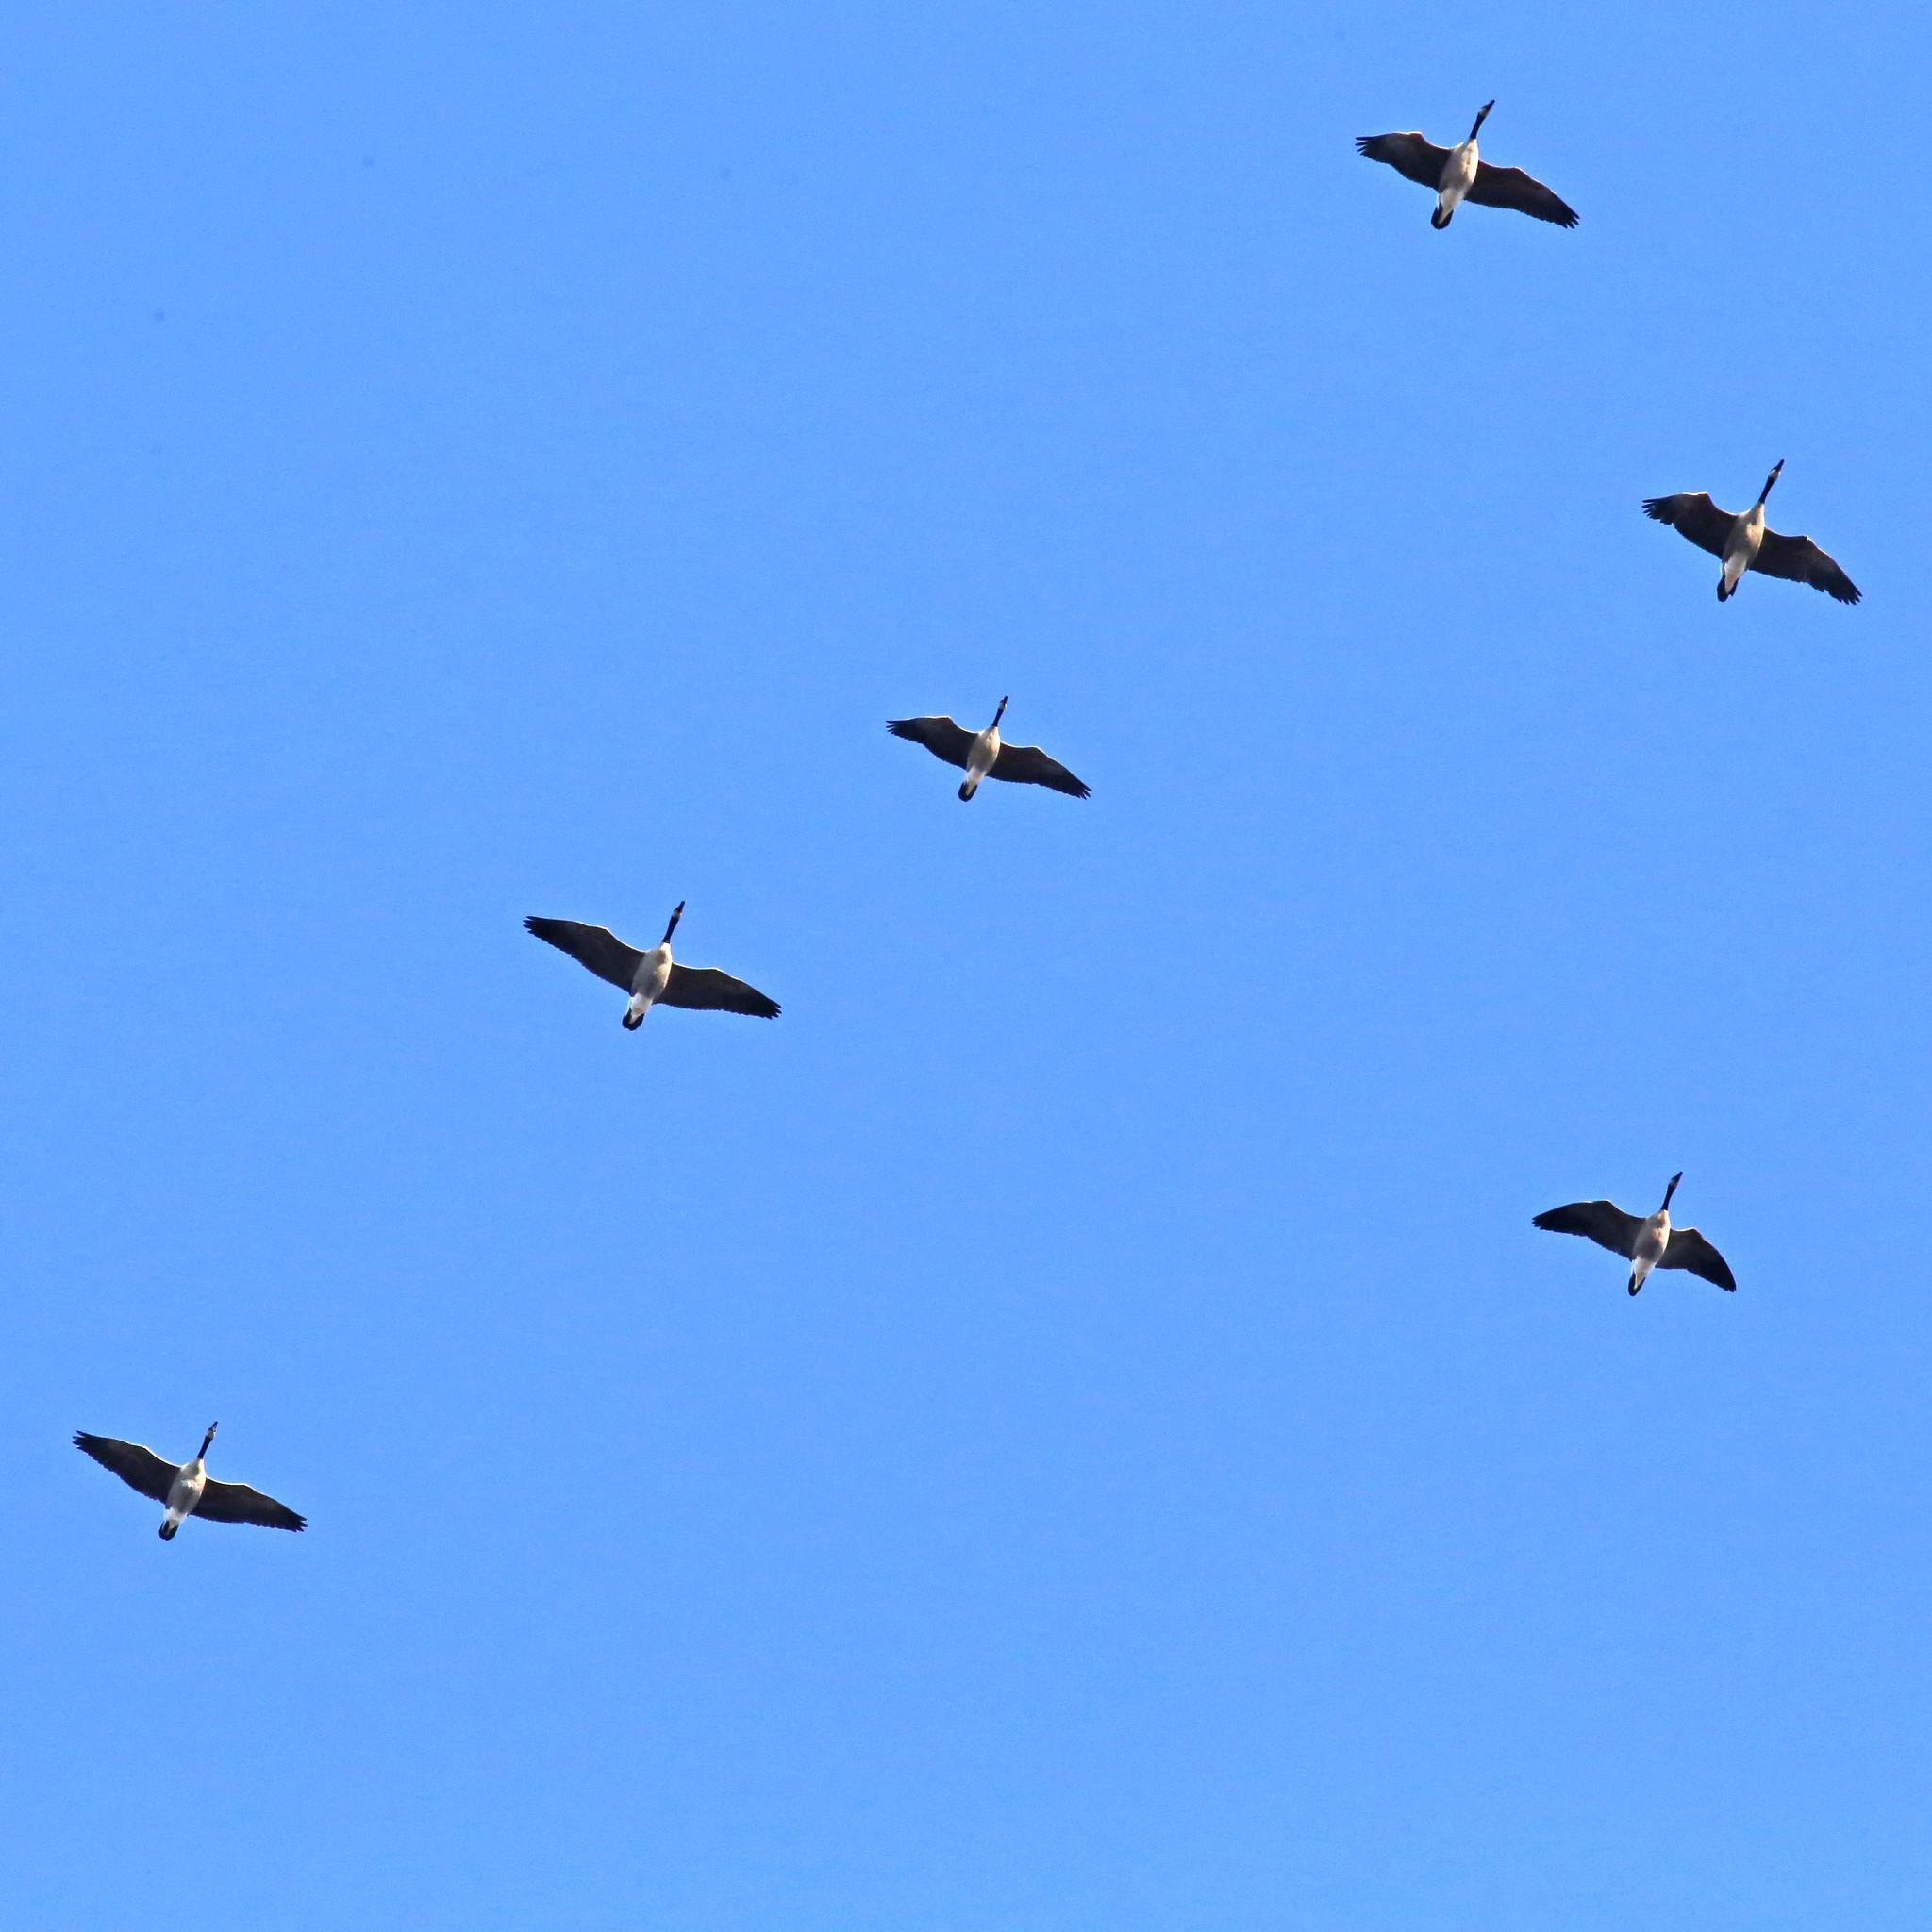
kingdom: Animalia
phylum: Chordata
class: Aves
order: Anseriformes
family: Anatidae
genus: Branta
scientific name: Branta canadensis
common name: Canada goose
